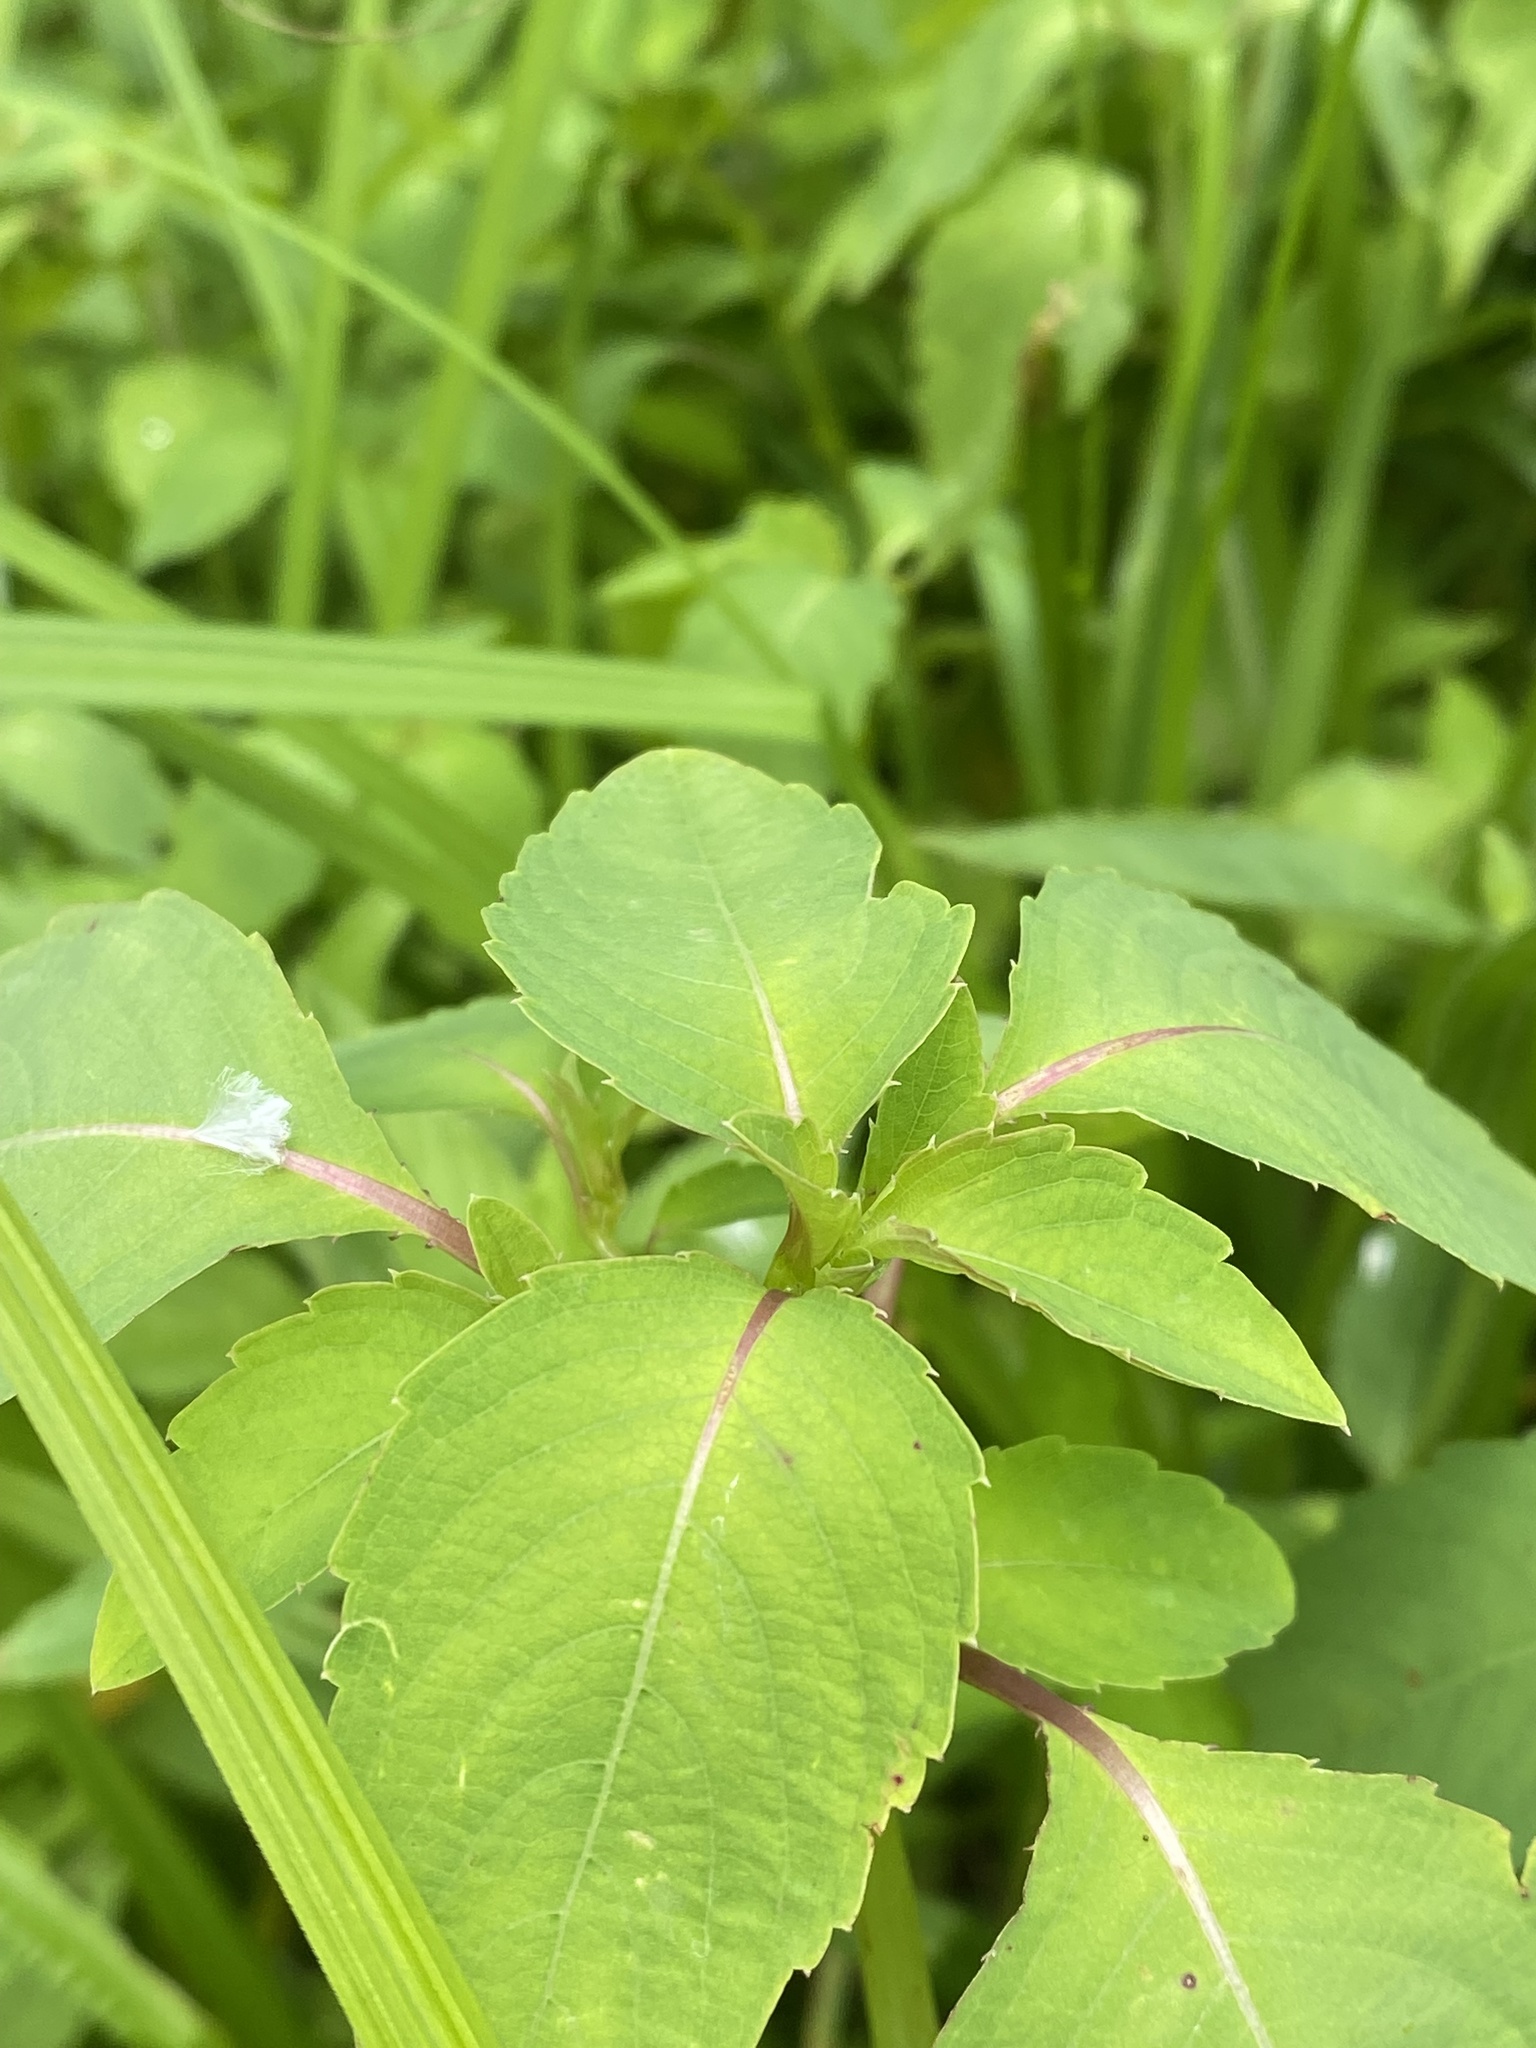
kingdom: Plantae
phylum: Tracheophyta
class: Magnoliopsida
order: Ericales
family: Balsaminaceae
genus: Impatiens
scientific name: Impatiens capensis
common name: Orange balsam
